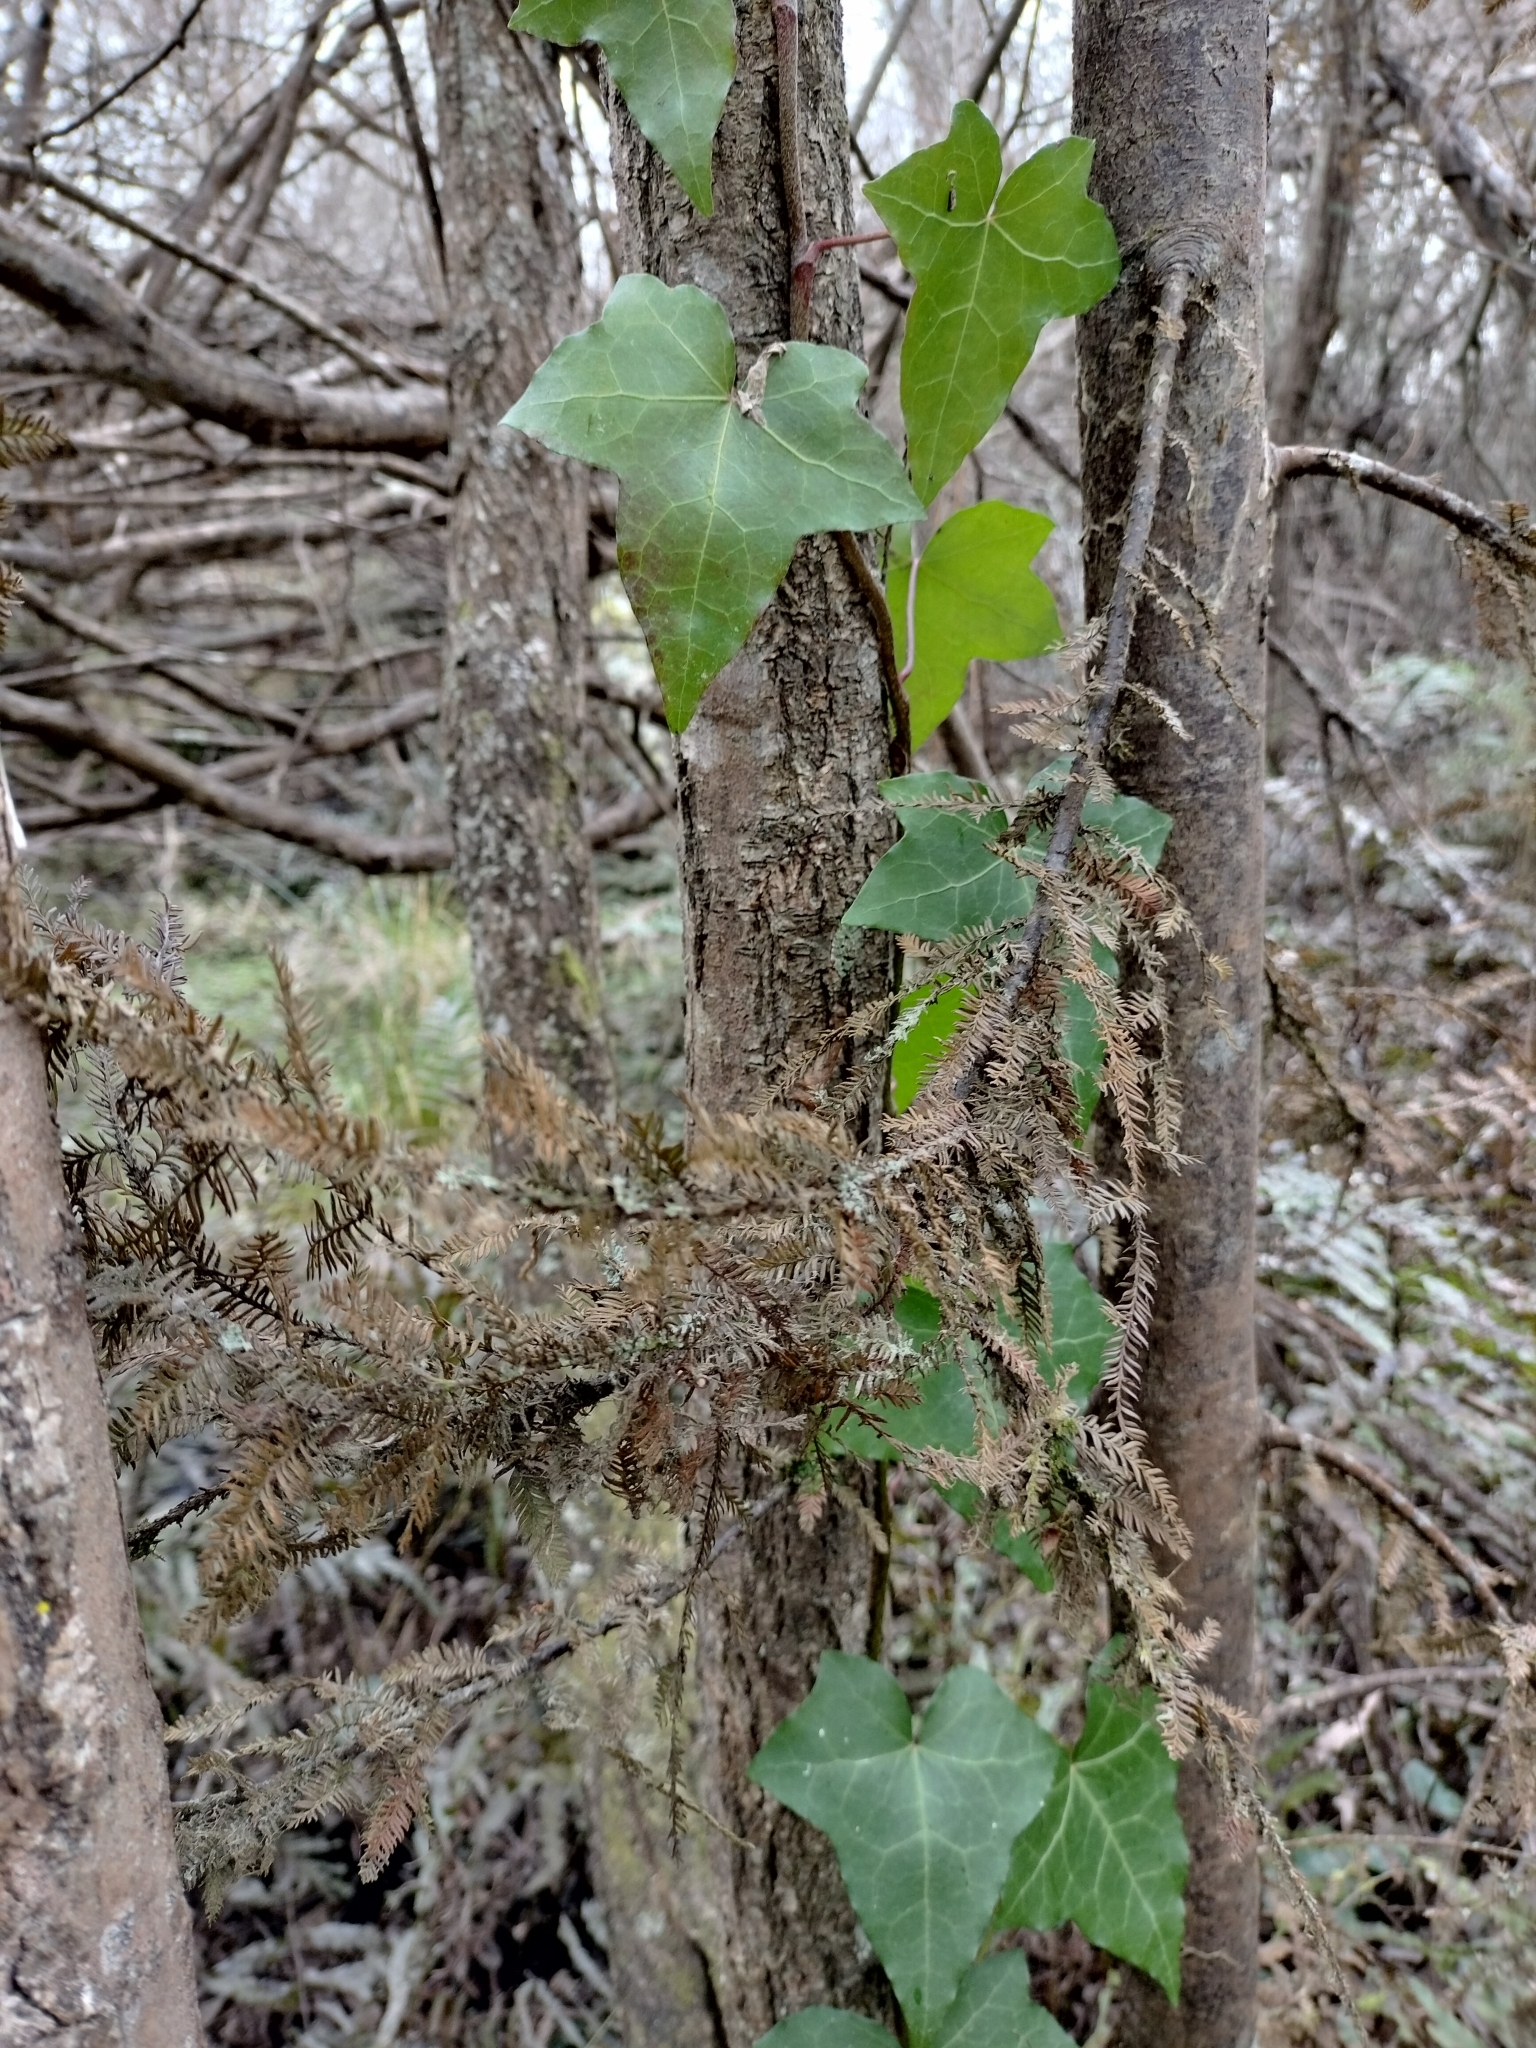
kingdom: Plantae
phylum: Tracheophyta
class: Pinopsida
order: Pinales
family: Podocarpaceae
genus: Dacrycarpus
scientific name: Dacrycarpus dacrydioides
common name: White pine
